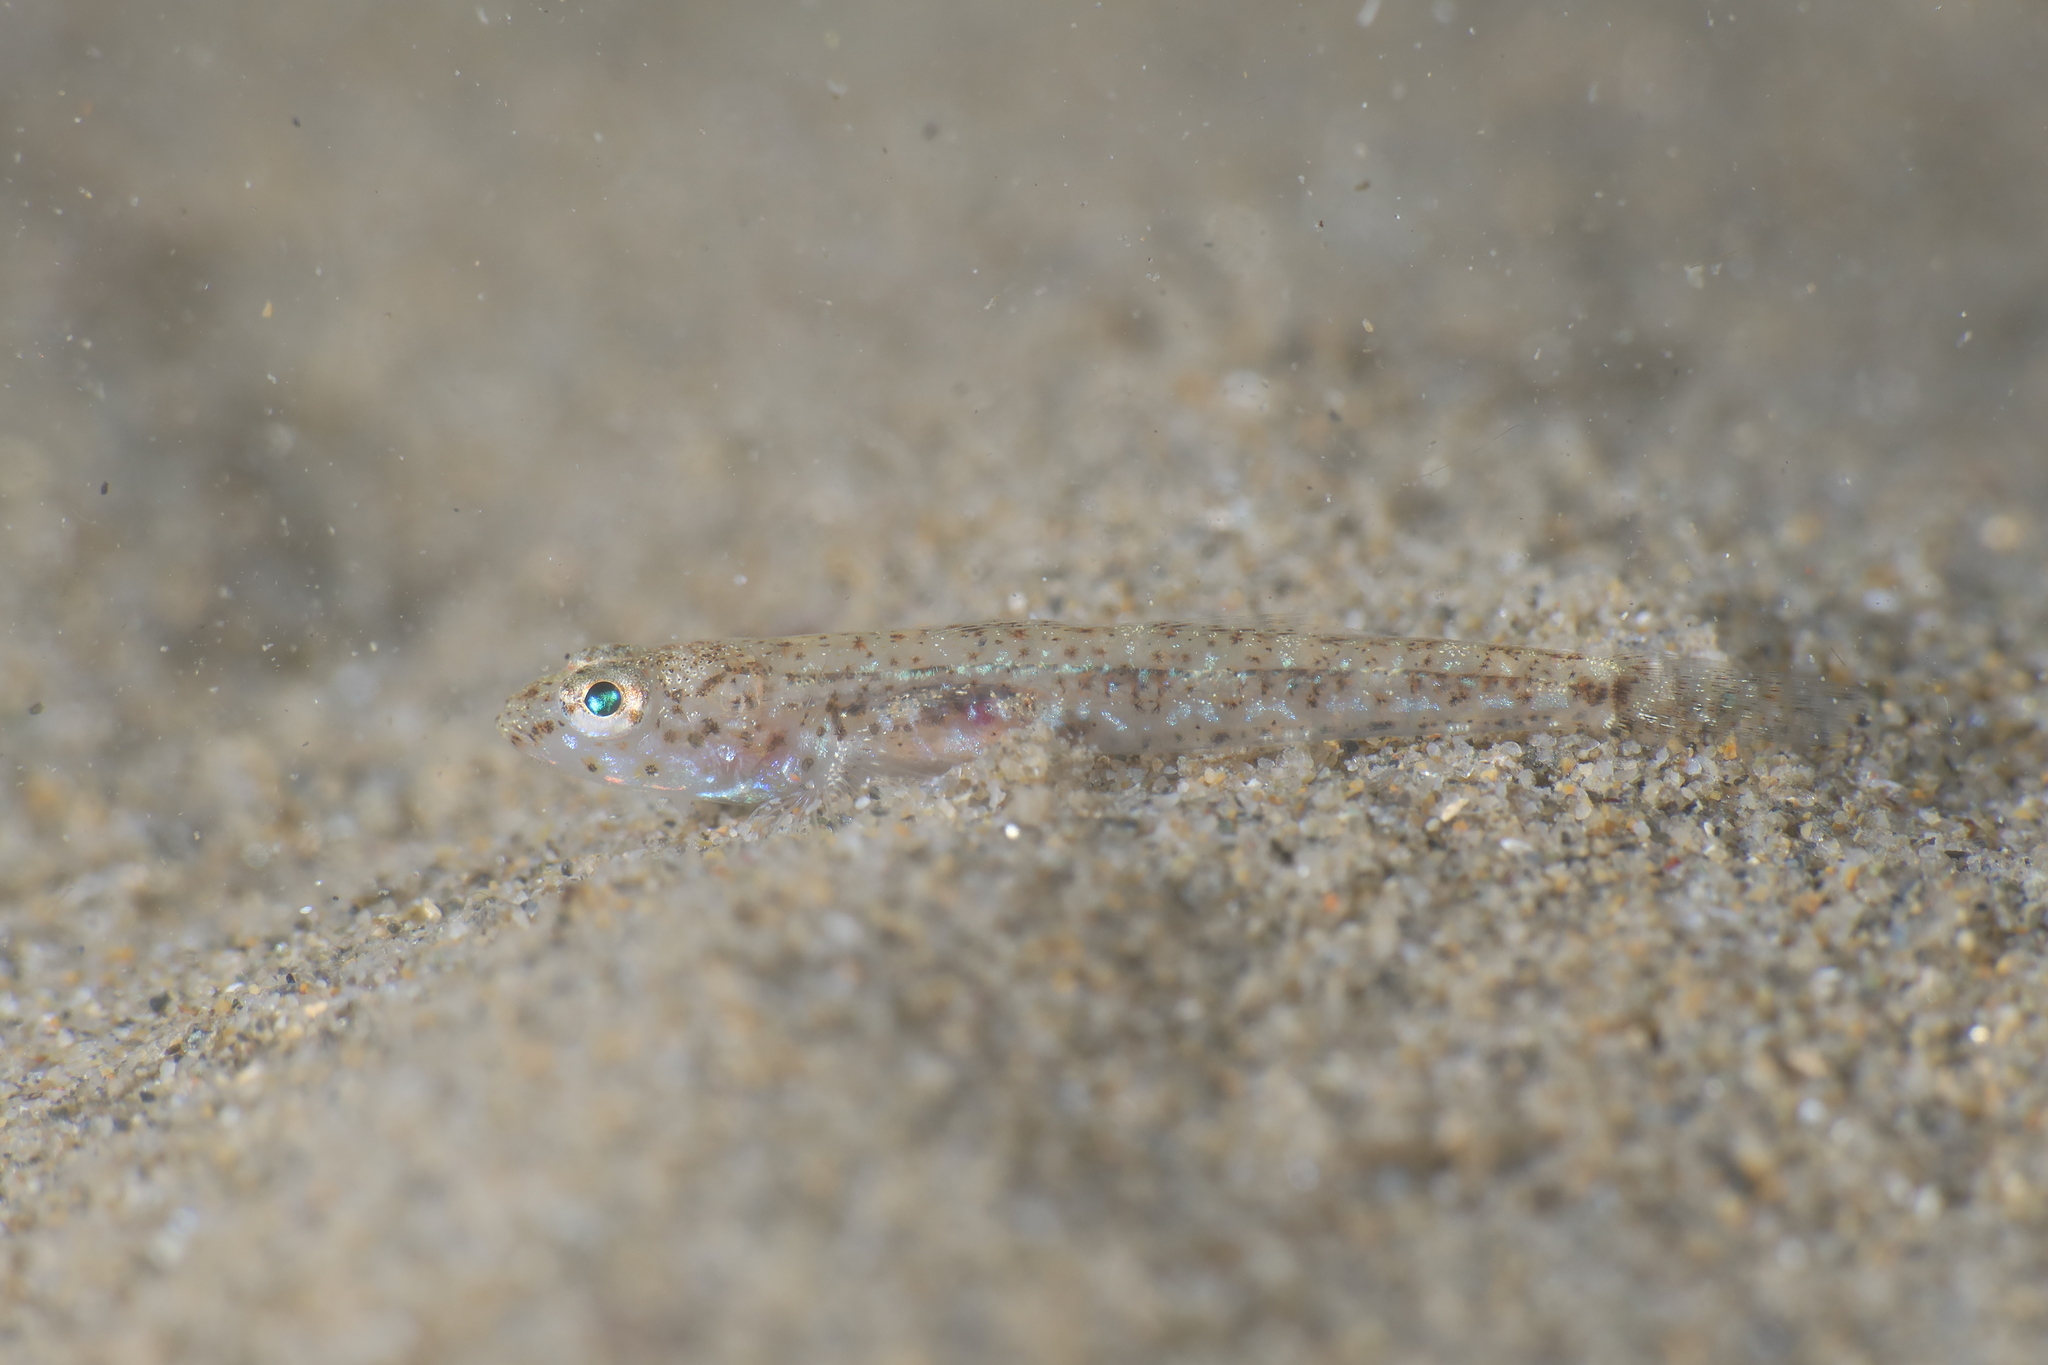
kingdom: Animalia
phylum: Chordata
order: Perciformes
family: Gobiidae
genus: Pomatoschistus
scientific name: Pomatoschistus marmoratus
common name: Marbled goby
